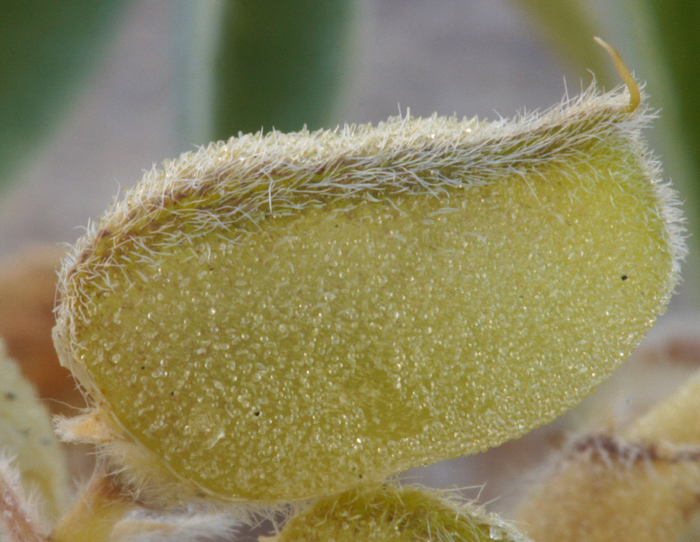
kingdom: Plantae
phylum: Tracheophyta
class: Magnoliopsida
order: Fabales
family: Fabaceae
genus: Lupinus
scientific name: Lupinus shockleyi
